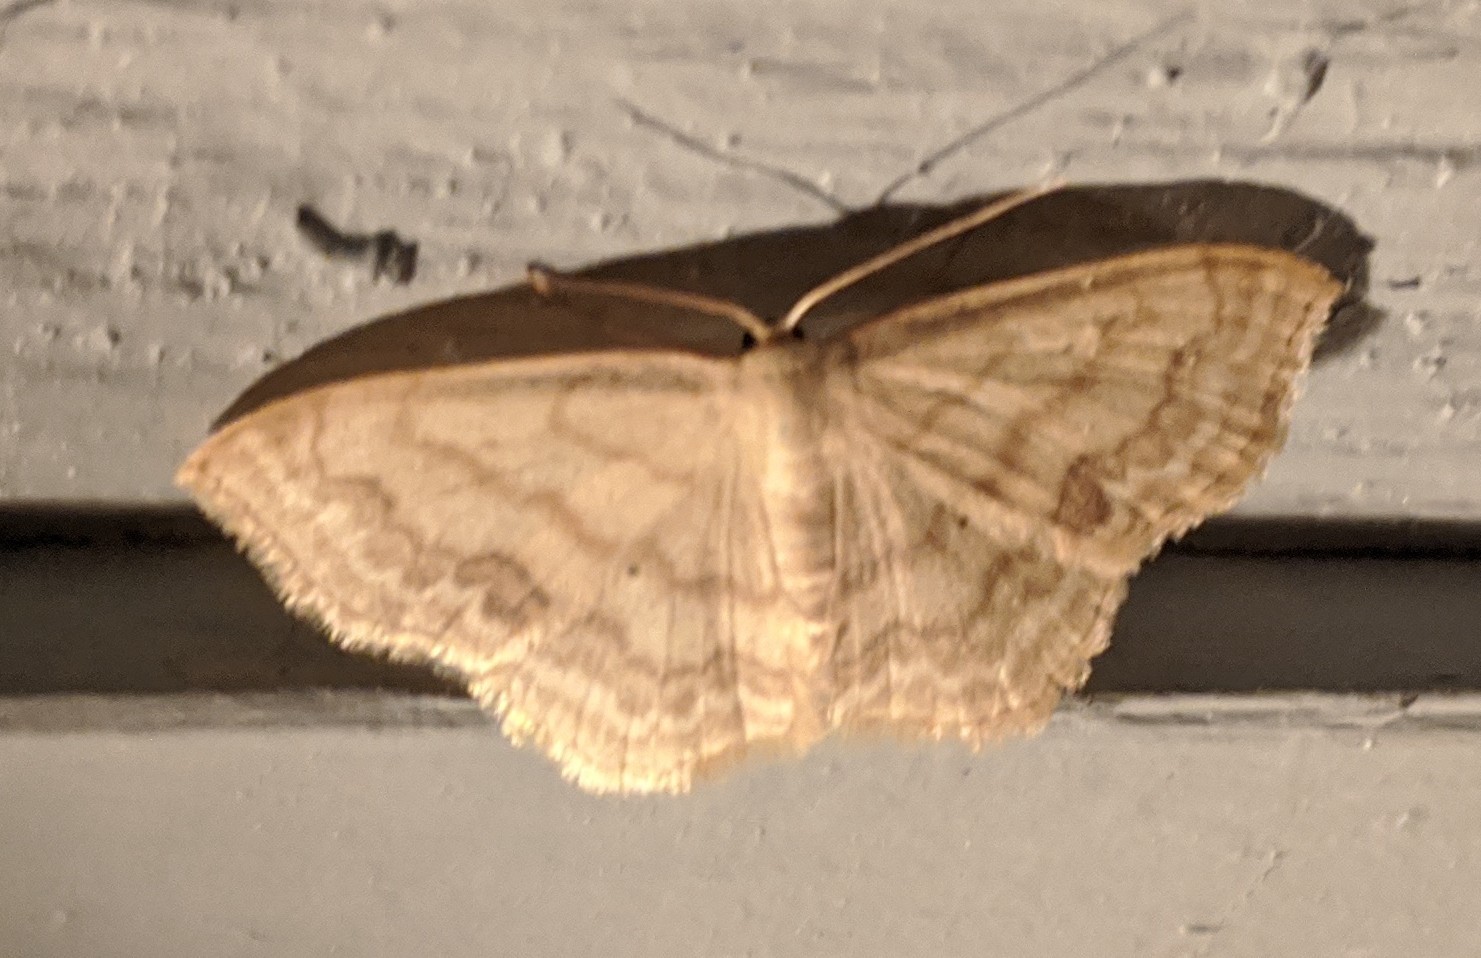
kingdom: Animalia
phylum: Arthropoda
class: Insecta
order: Lepidoptera
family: Geometridae
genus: Scopula
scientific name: Scopula limboundata
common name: Large lace border
